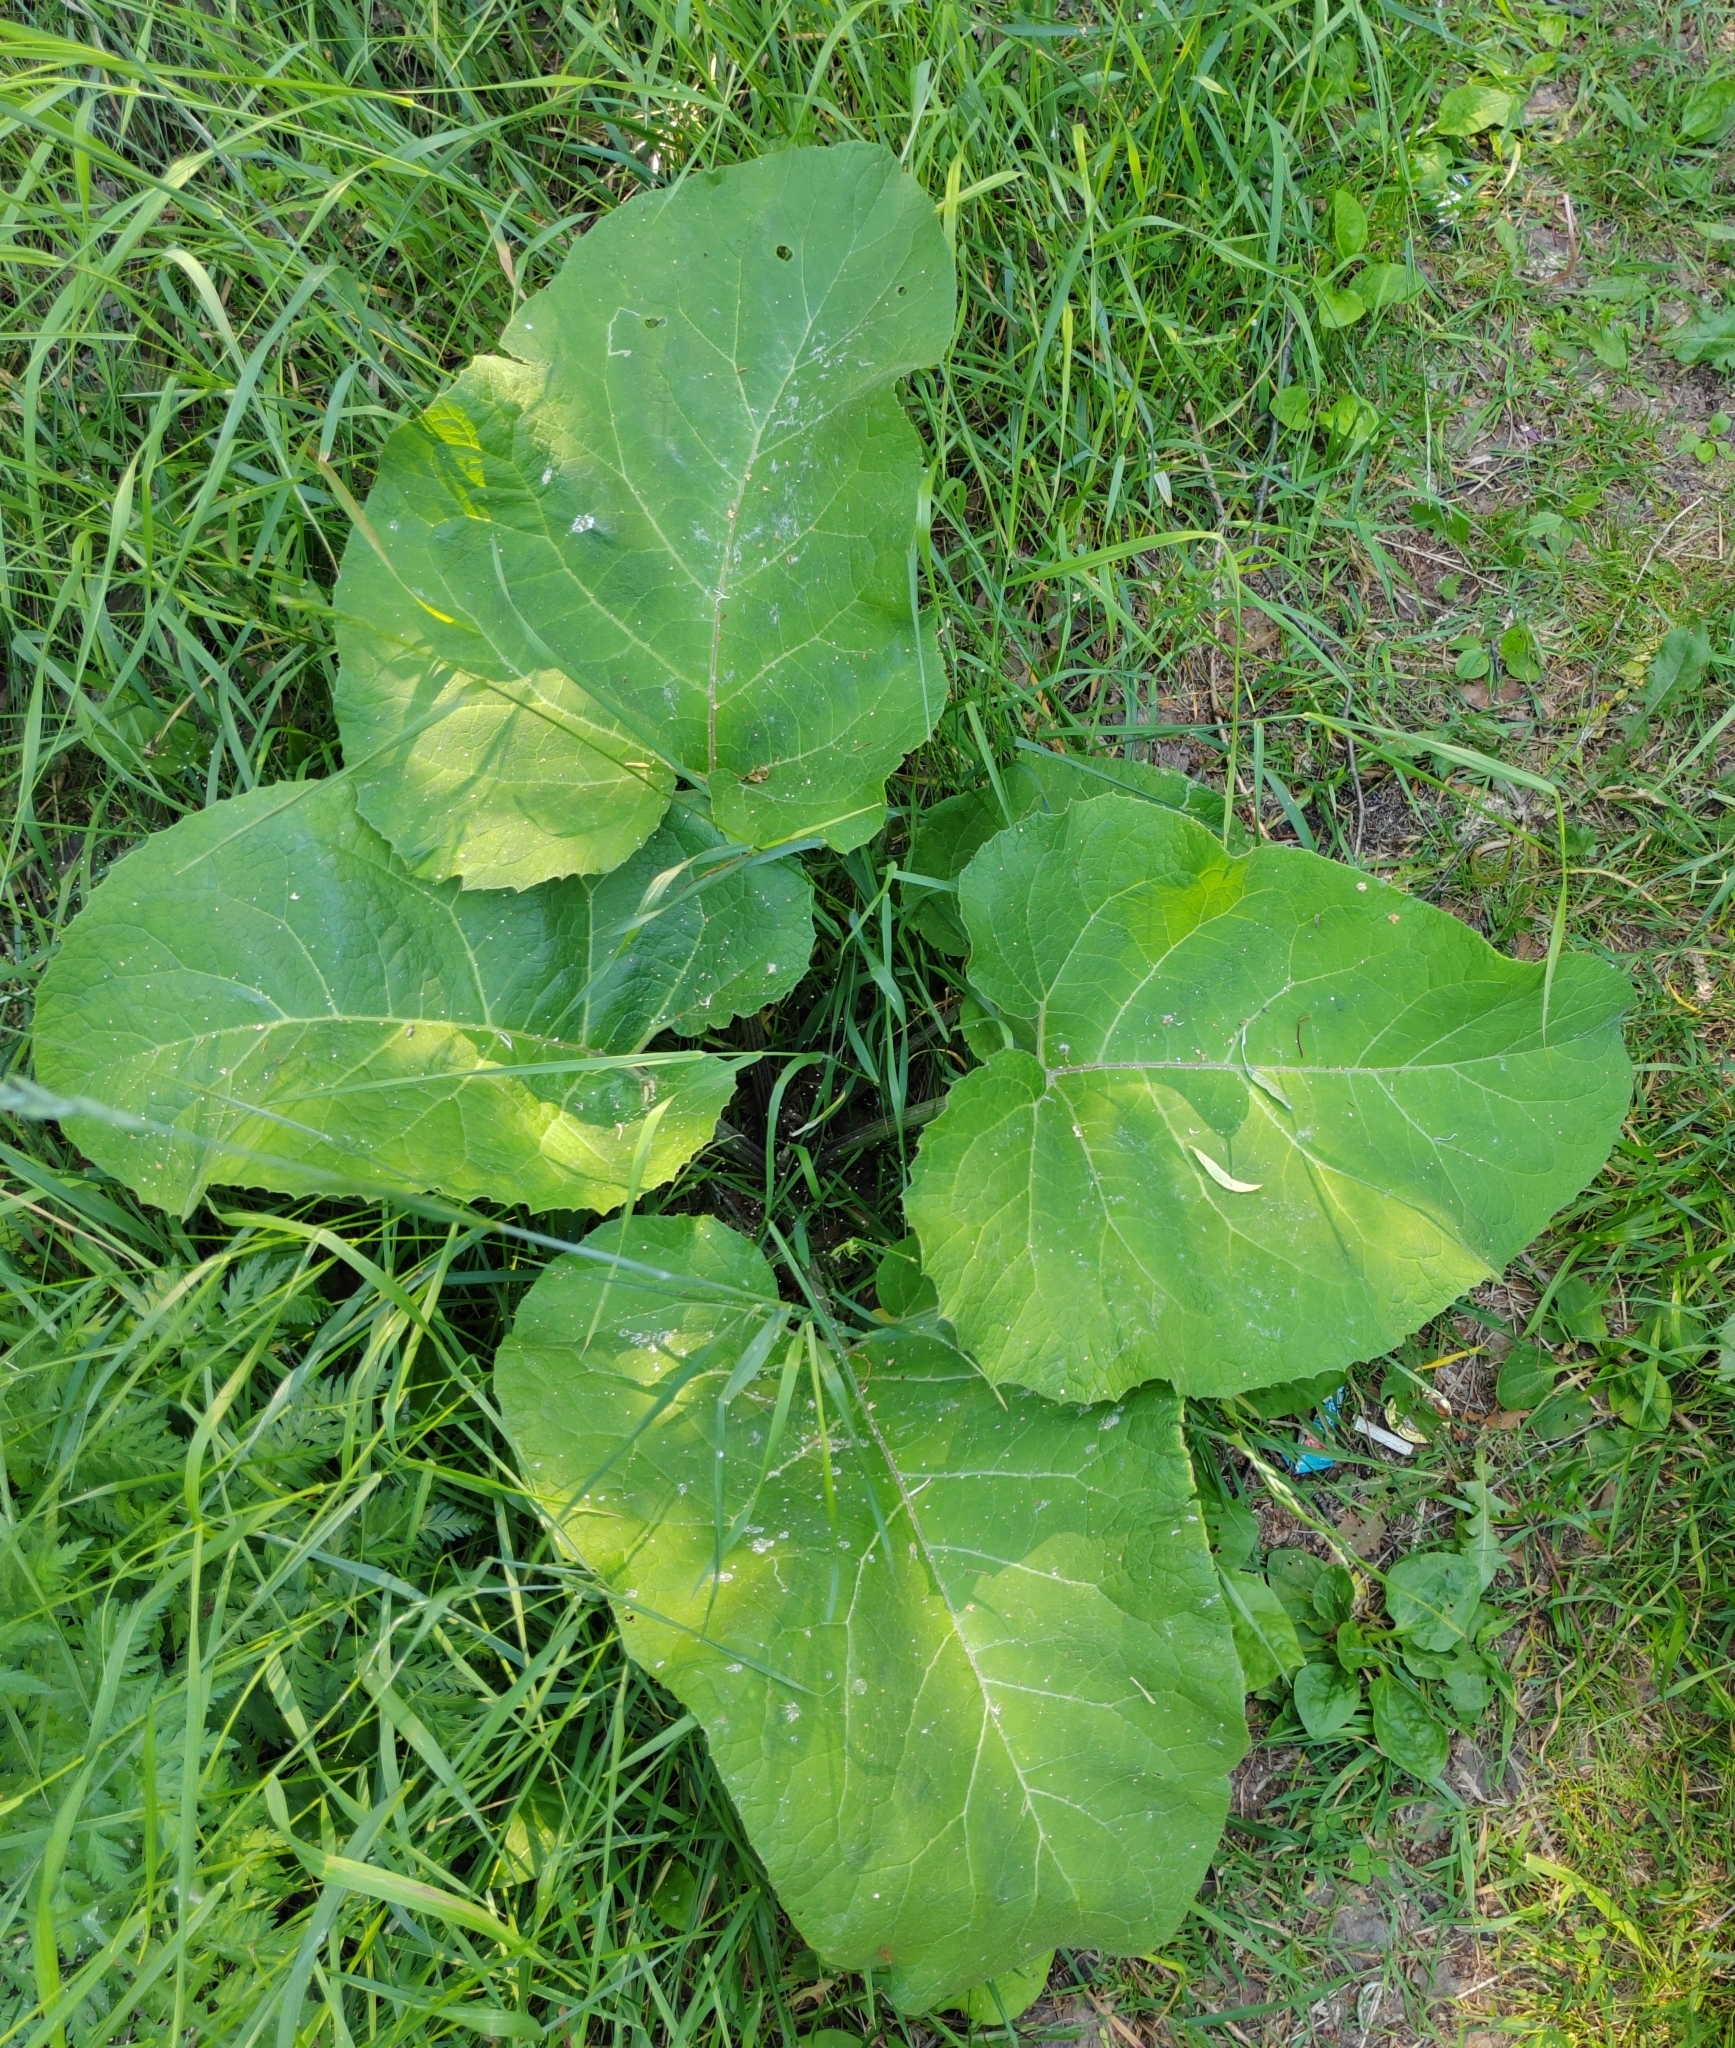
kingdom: Plantae
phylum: Tracheophyta
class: Magnoliopsida
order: Asterales
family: Asteraceae
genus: Arctium
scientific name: Arctium tomentosum
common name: Woolly burdock
